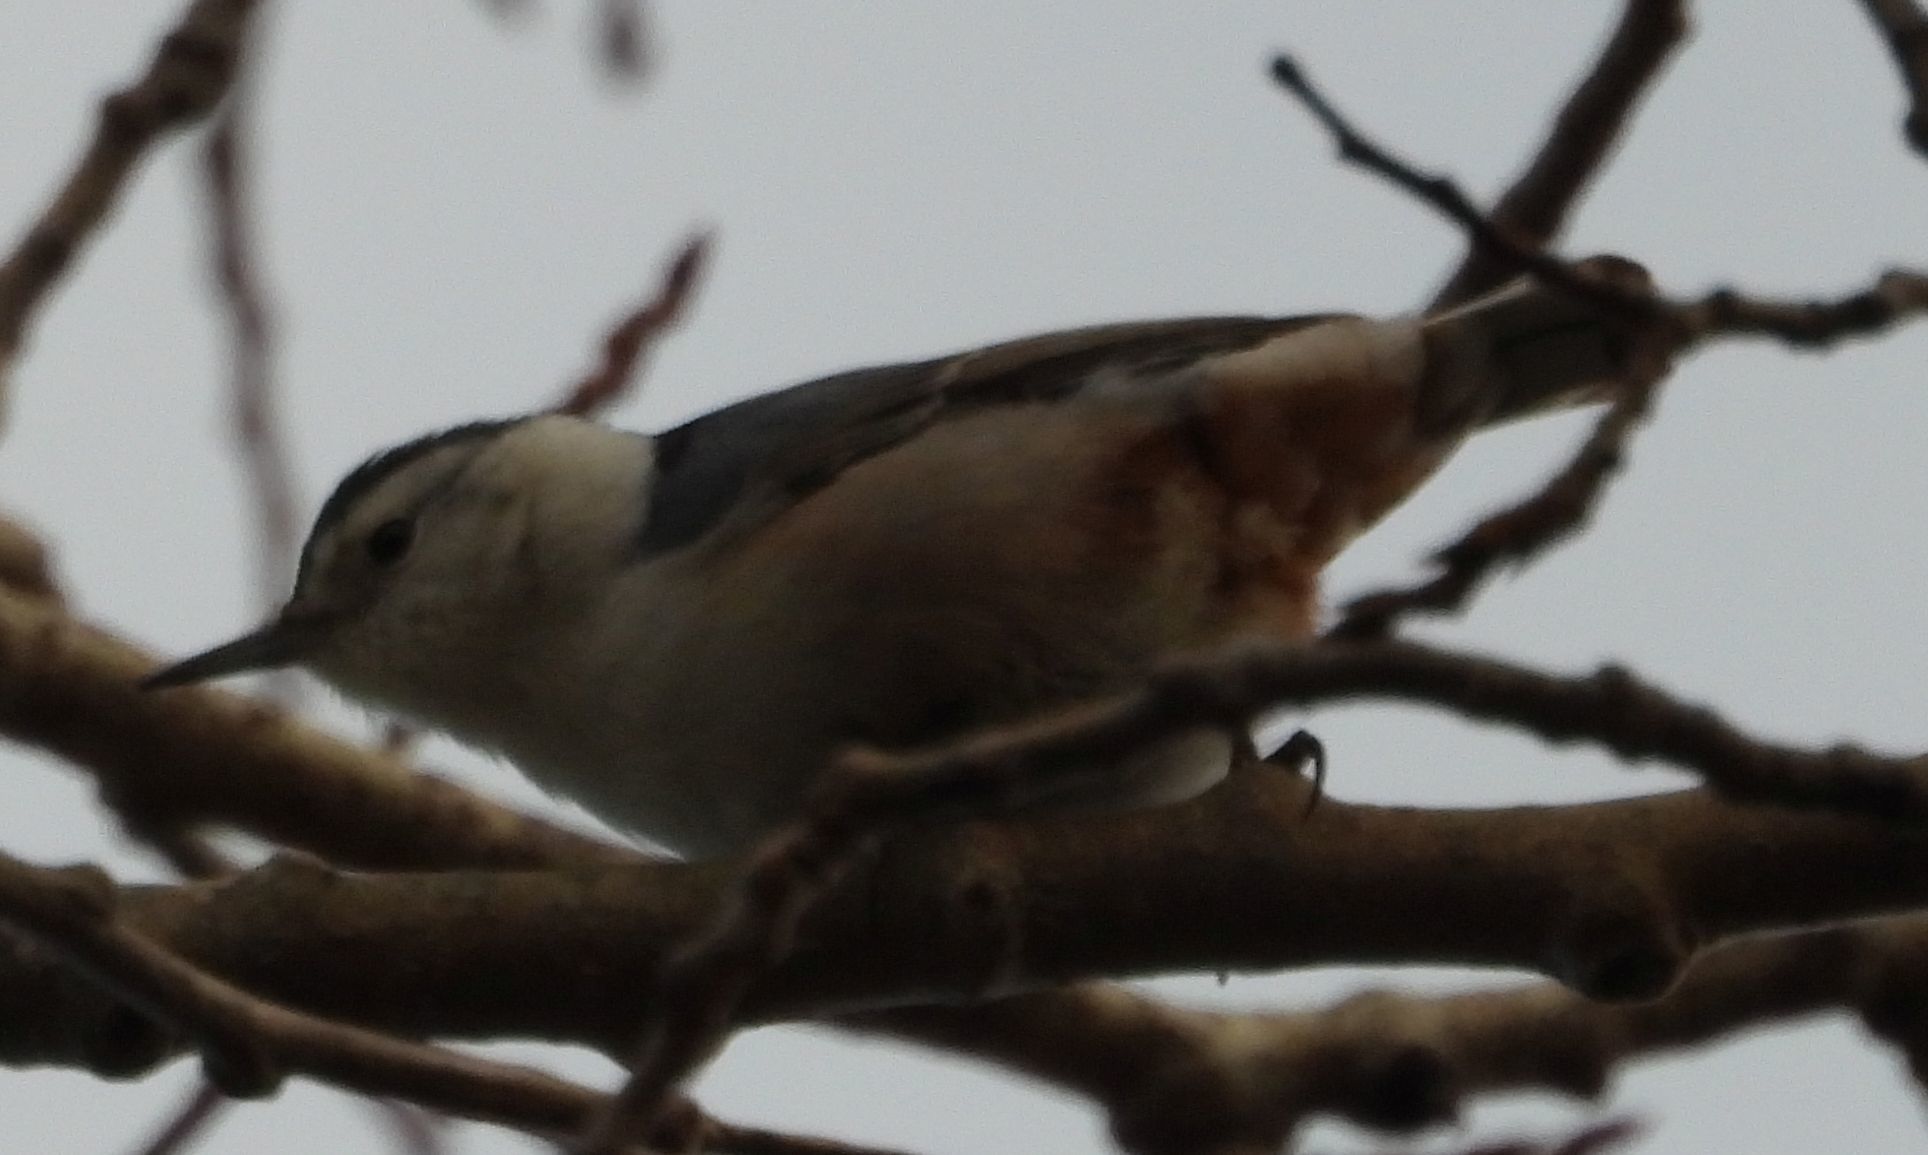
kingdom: Animalia
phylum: Chordata
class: Aves
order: Passeriformes
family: Sittidae
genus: Sitta
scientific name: Sitta carolinensis
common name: White-breasted nuthatch
